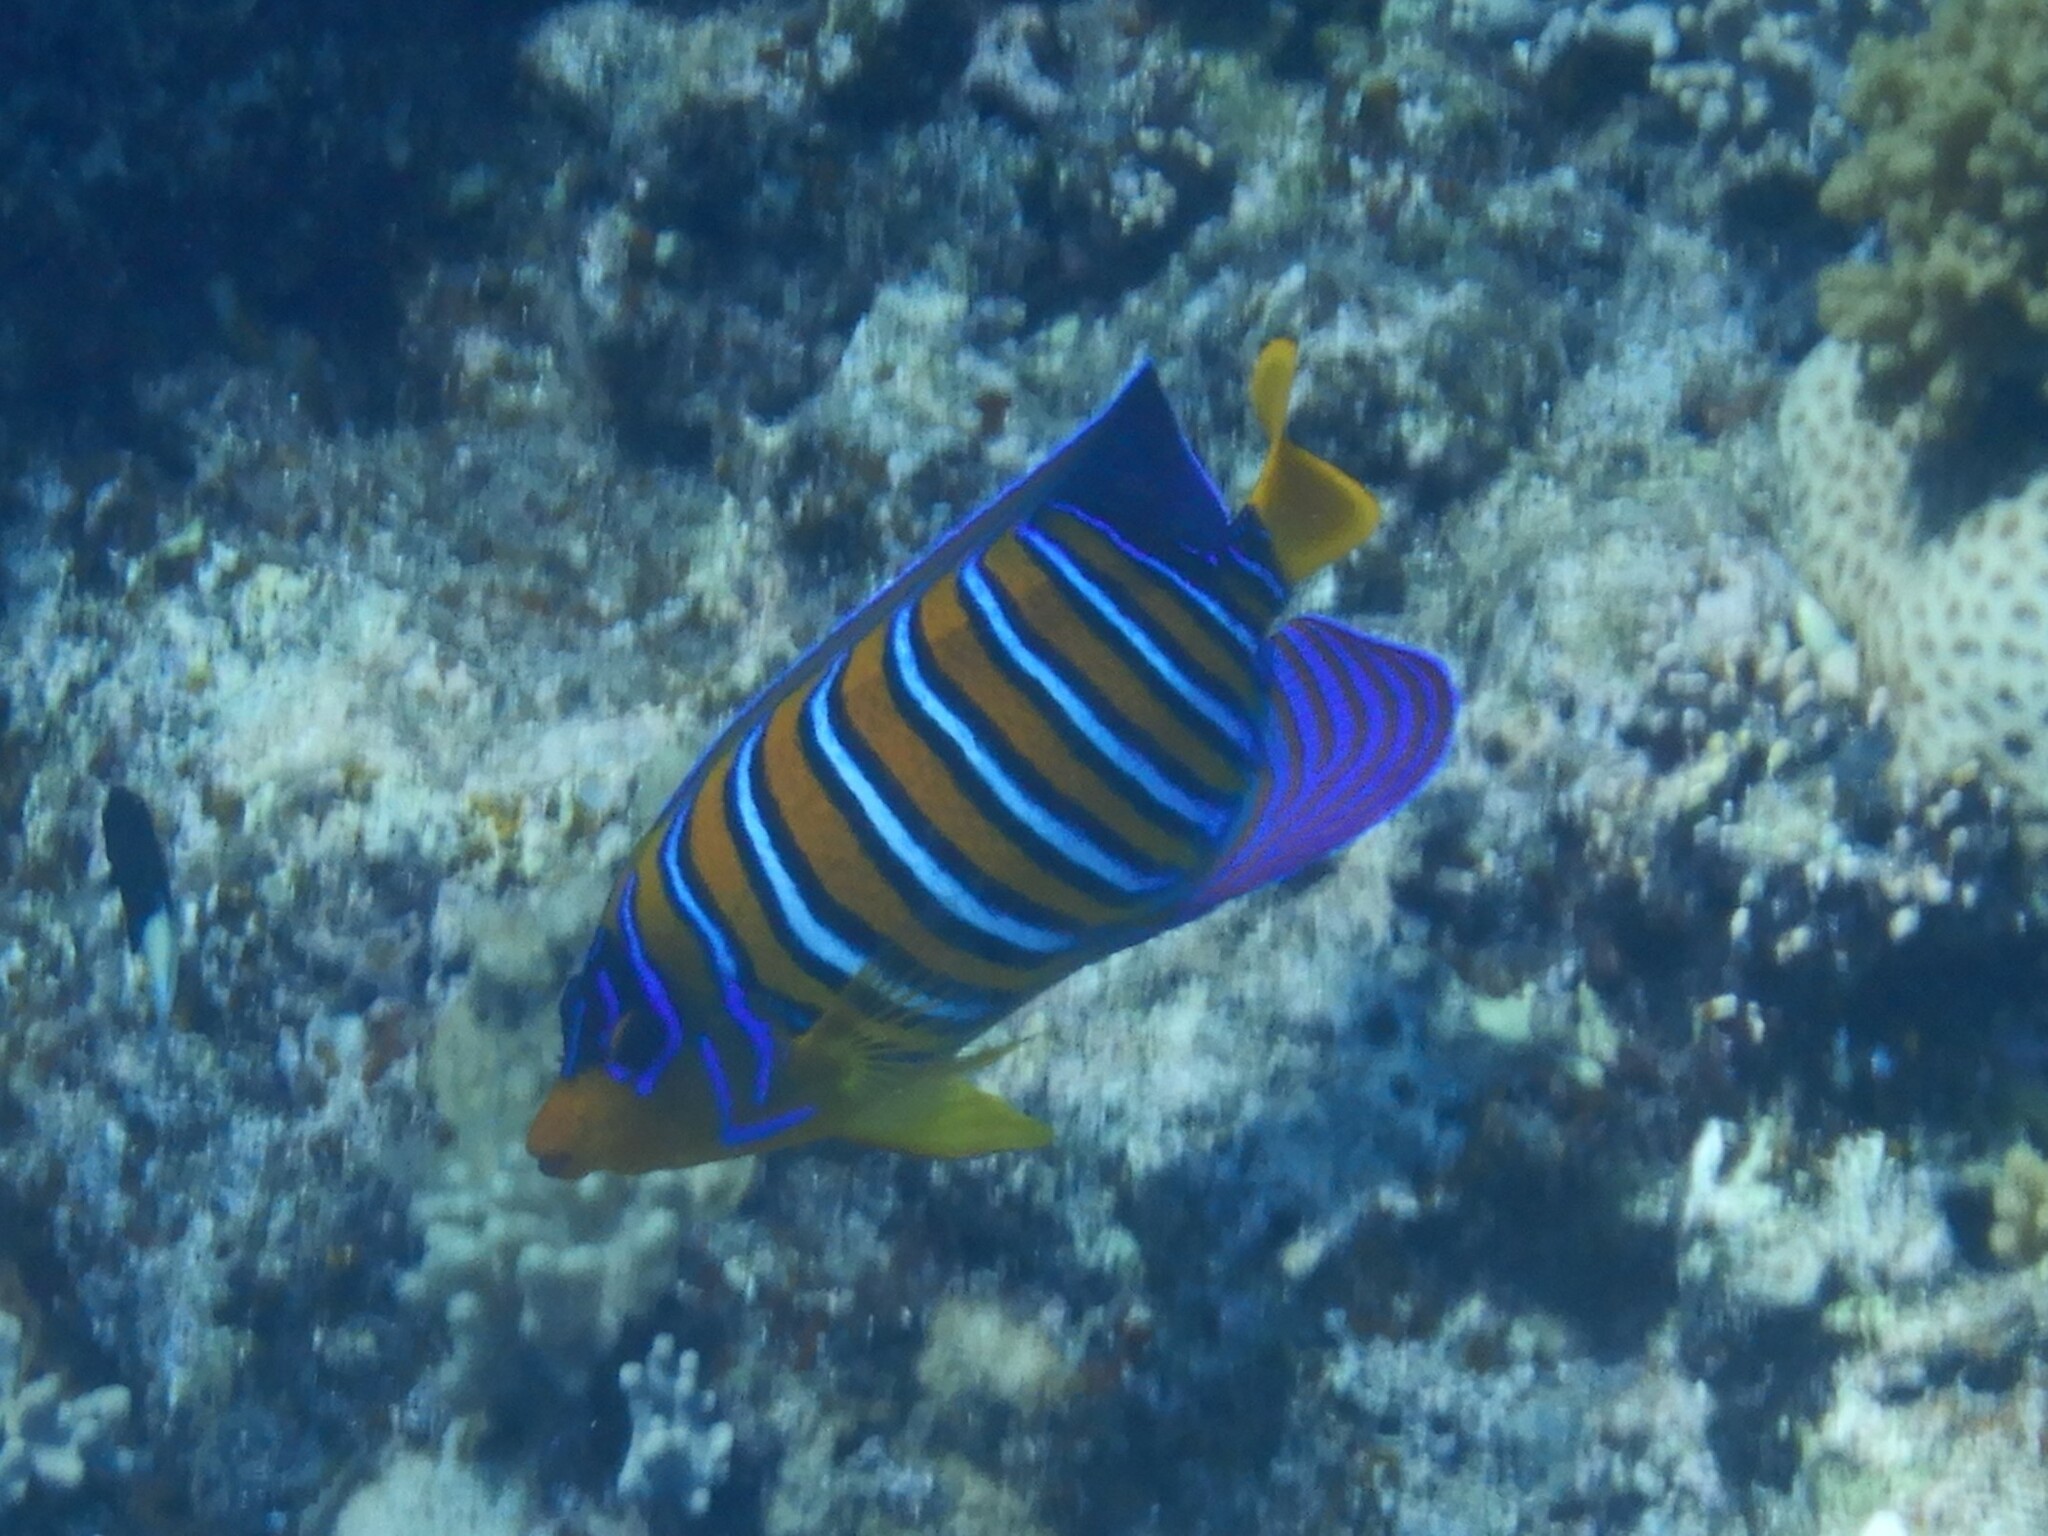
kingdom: Animalia
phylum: Chordata
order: Perciformes
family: Pomacanthidae
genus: Pygoplites
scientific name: Pygoplites diacanthus
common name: Regal angelfish
